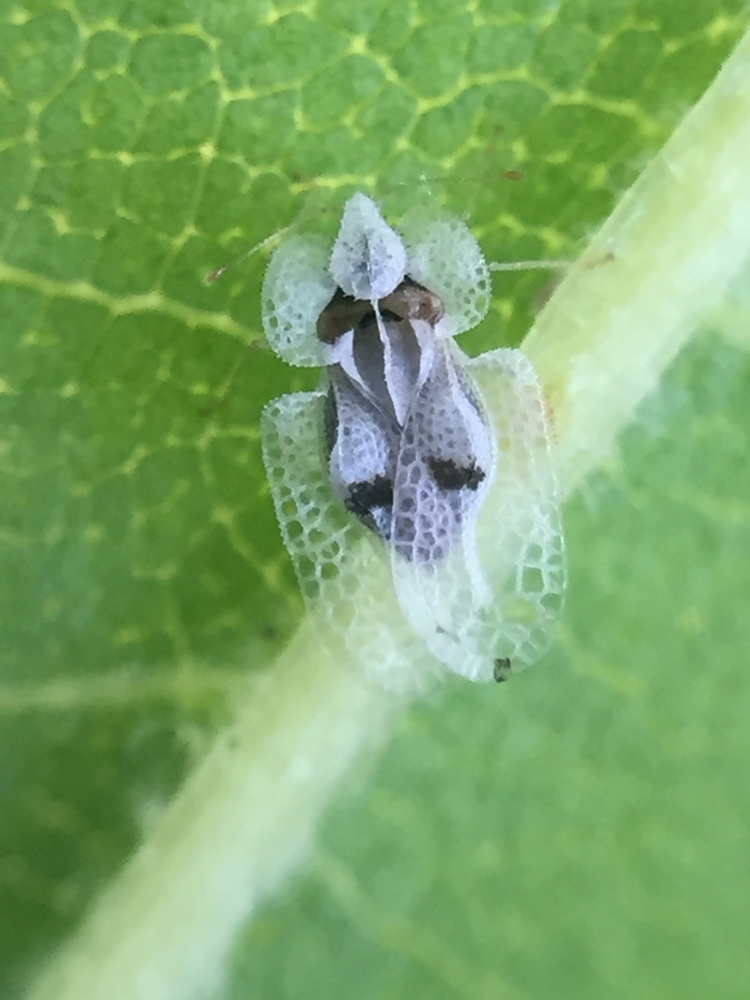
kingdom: Animalia
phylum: Arthropoda
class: Insecta
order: Hemiptera
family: Tingidae
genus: Corythucha
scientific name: Corythucha ciliata
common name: Sycamore lace bug
